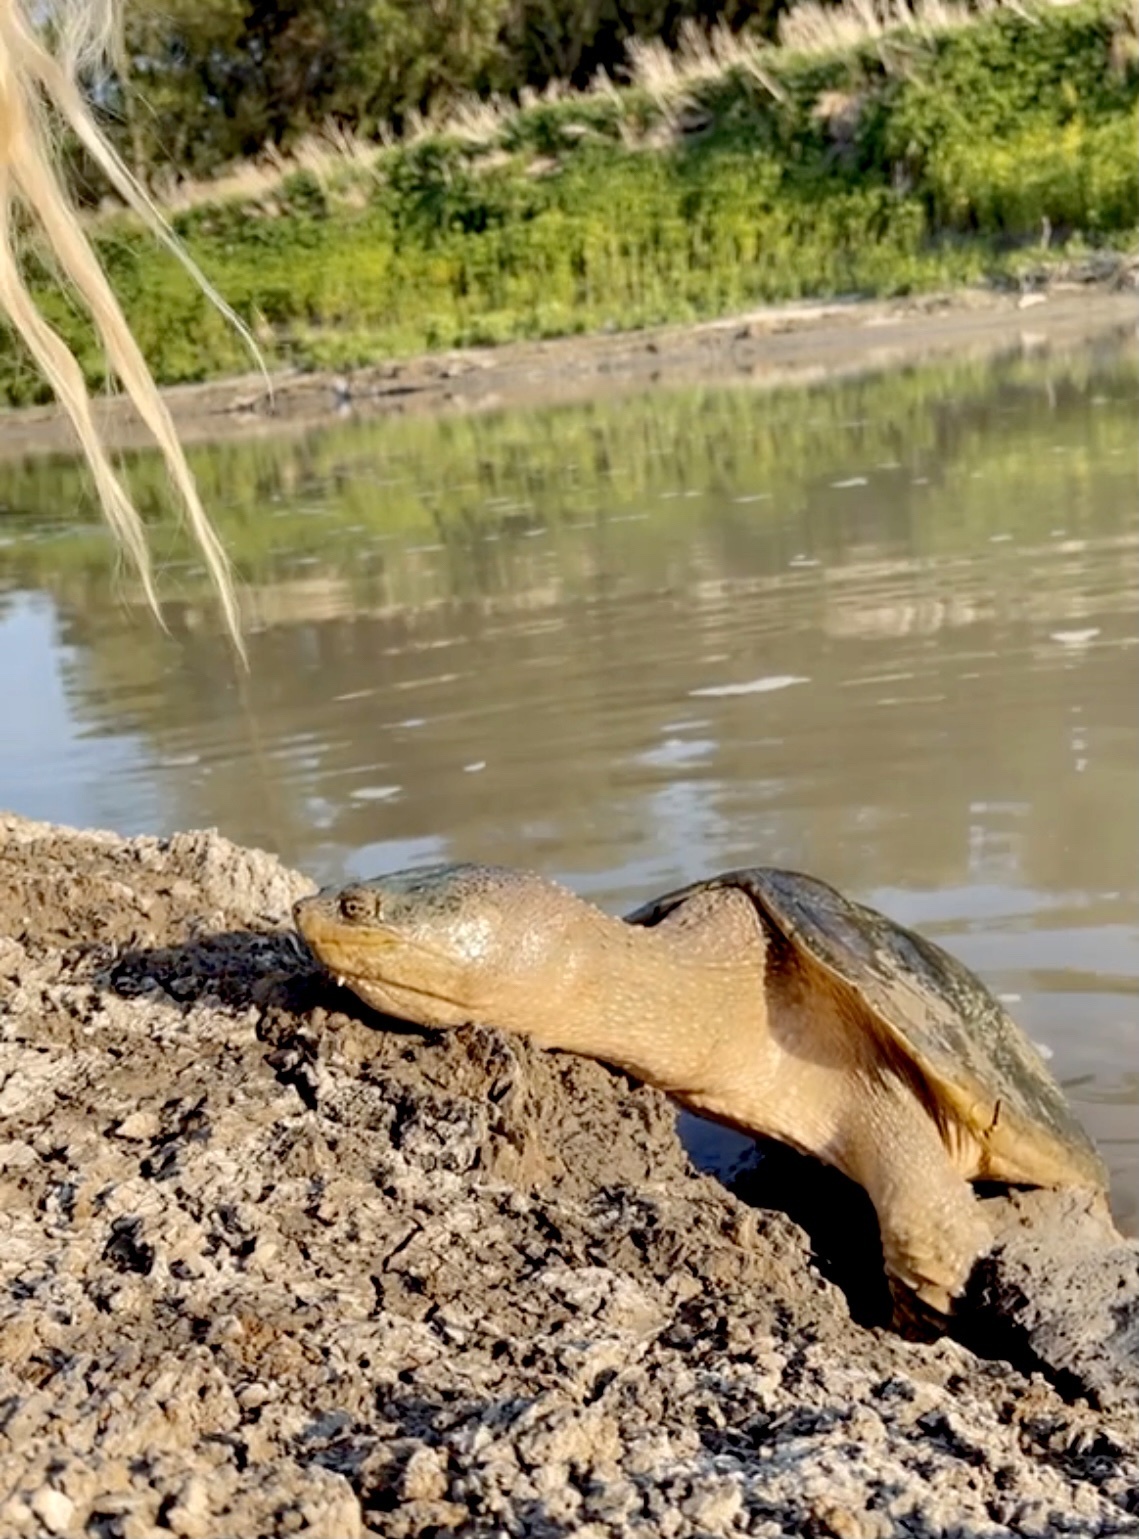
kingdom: Animalia
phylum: Chordata
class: Testudines
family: Chelydridae
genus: Chelydra
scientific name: Chelydra serpentina
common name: Common snapping turtle
